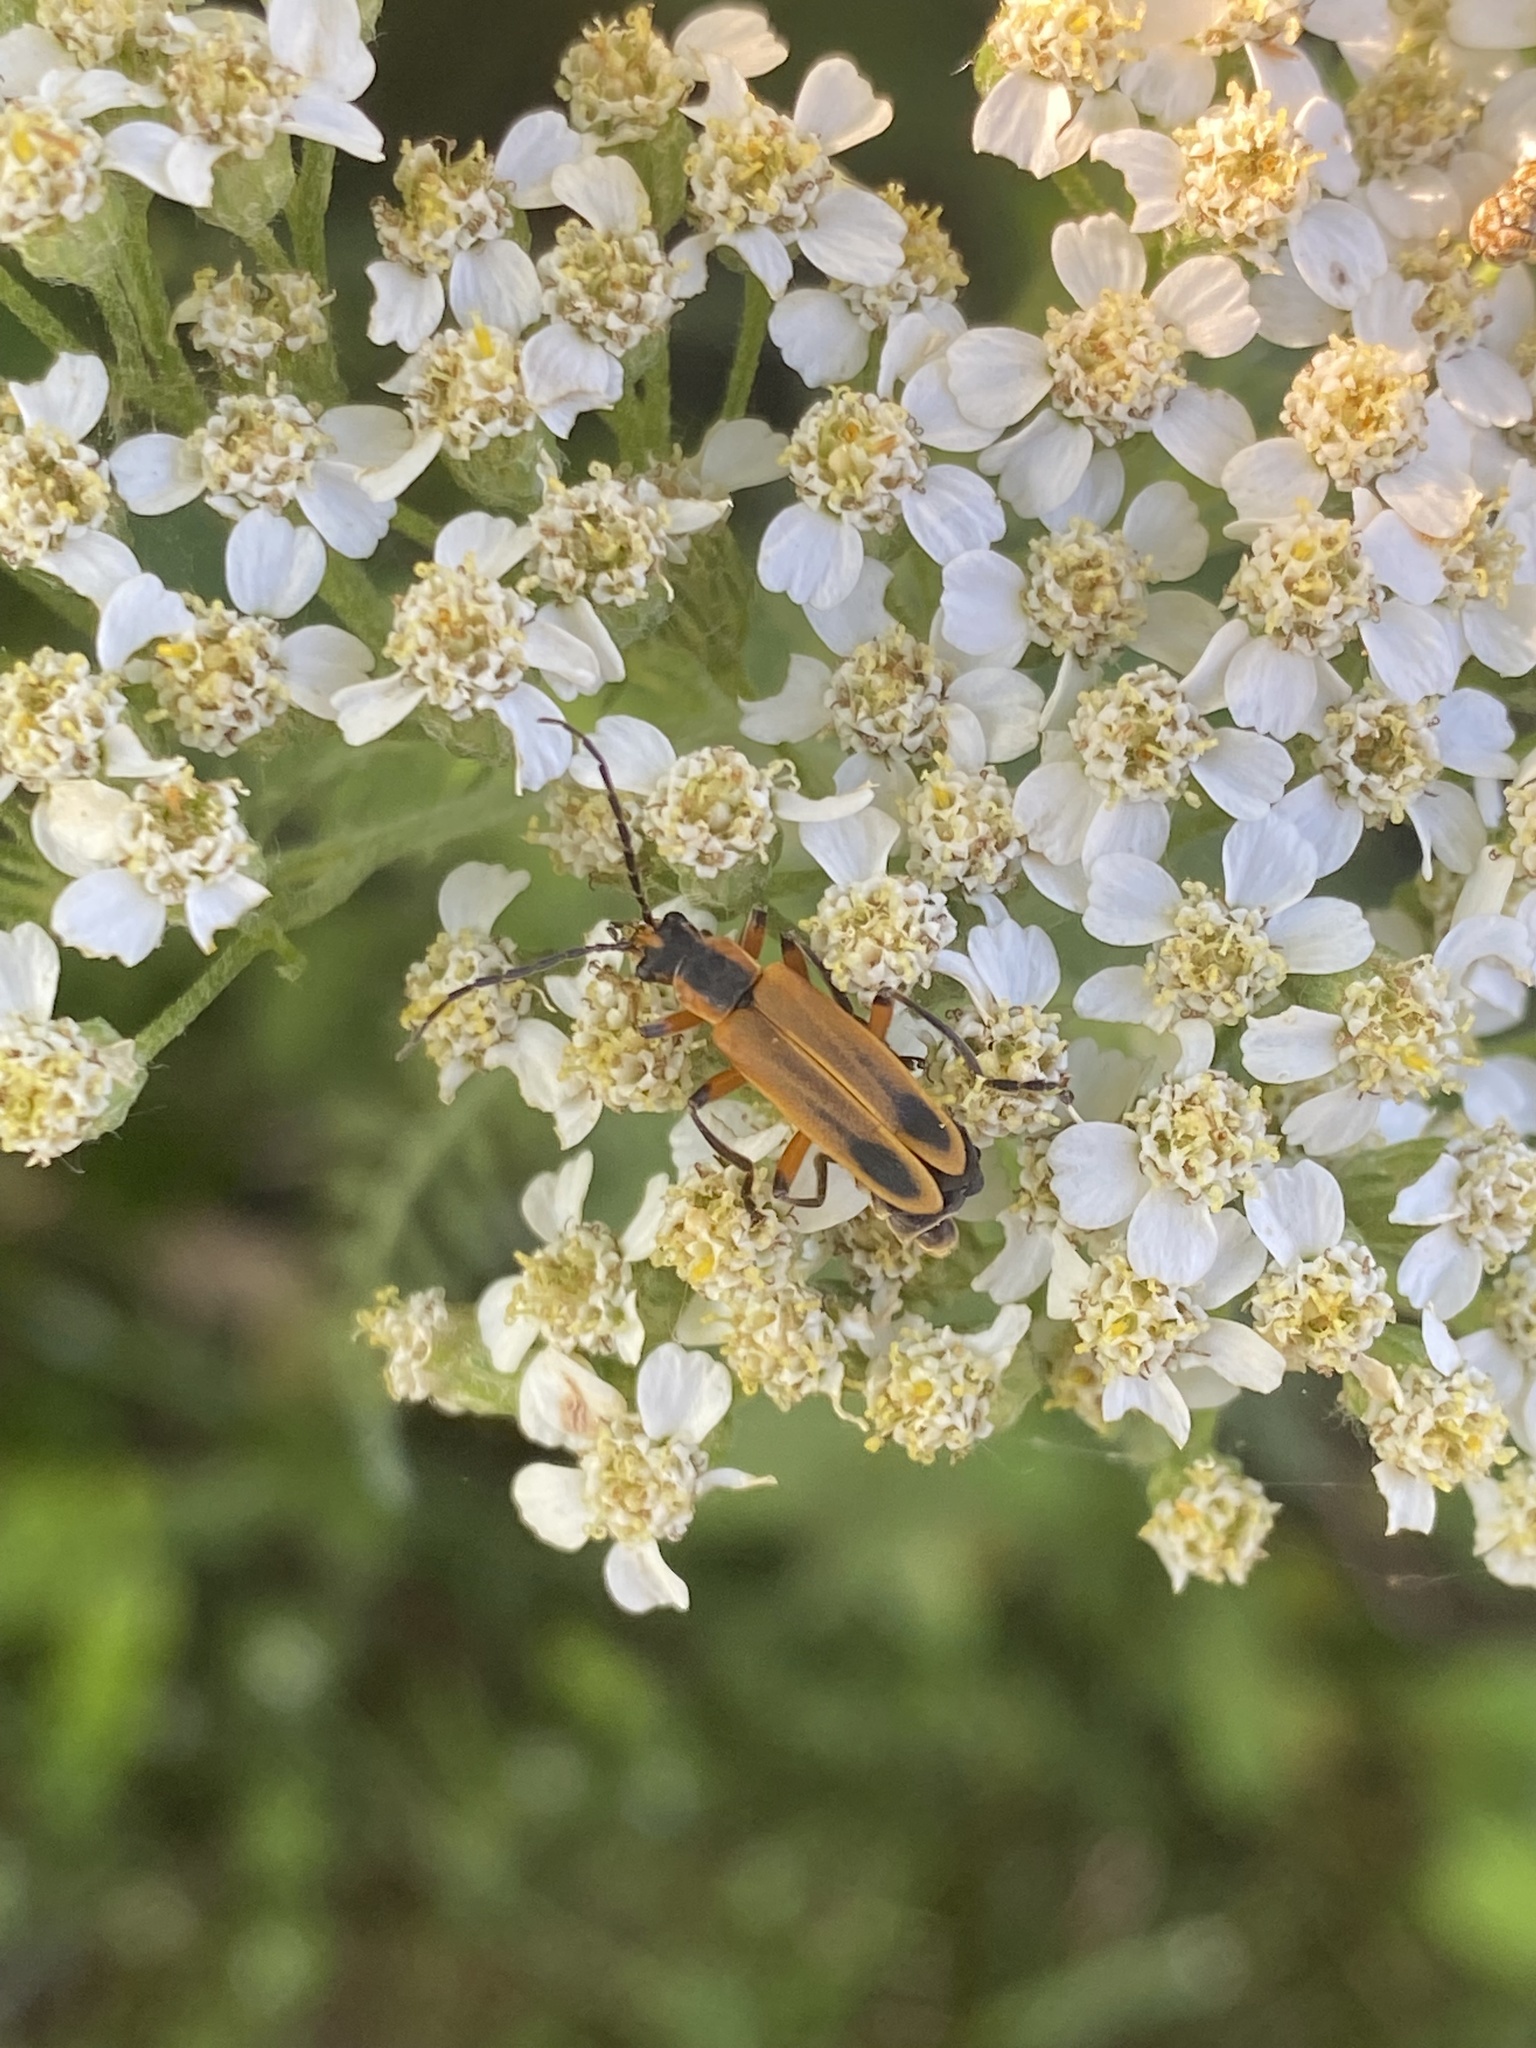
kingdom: Animalia
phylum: Arthropoda
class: Insecta
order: Coleoptera
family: Cantharidae
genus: Chauliognathus
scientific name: Chauliognathus marginatus
